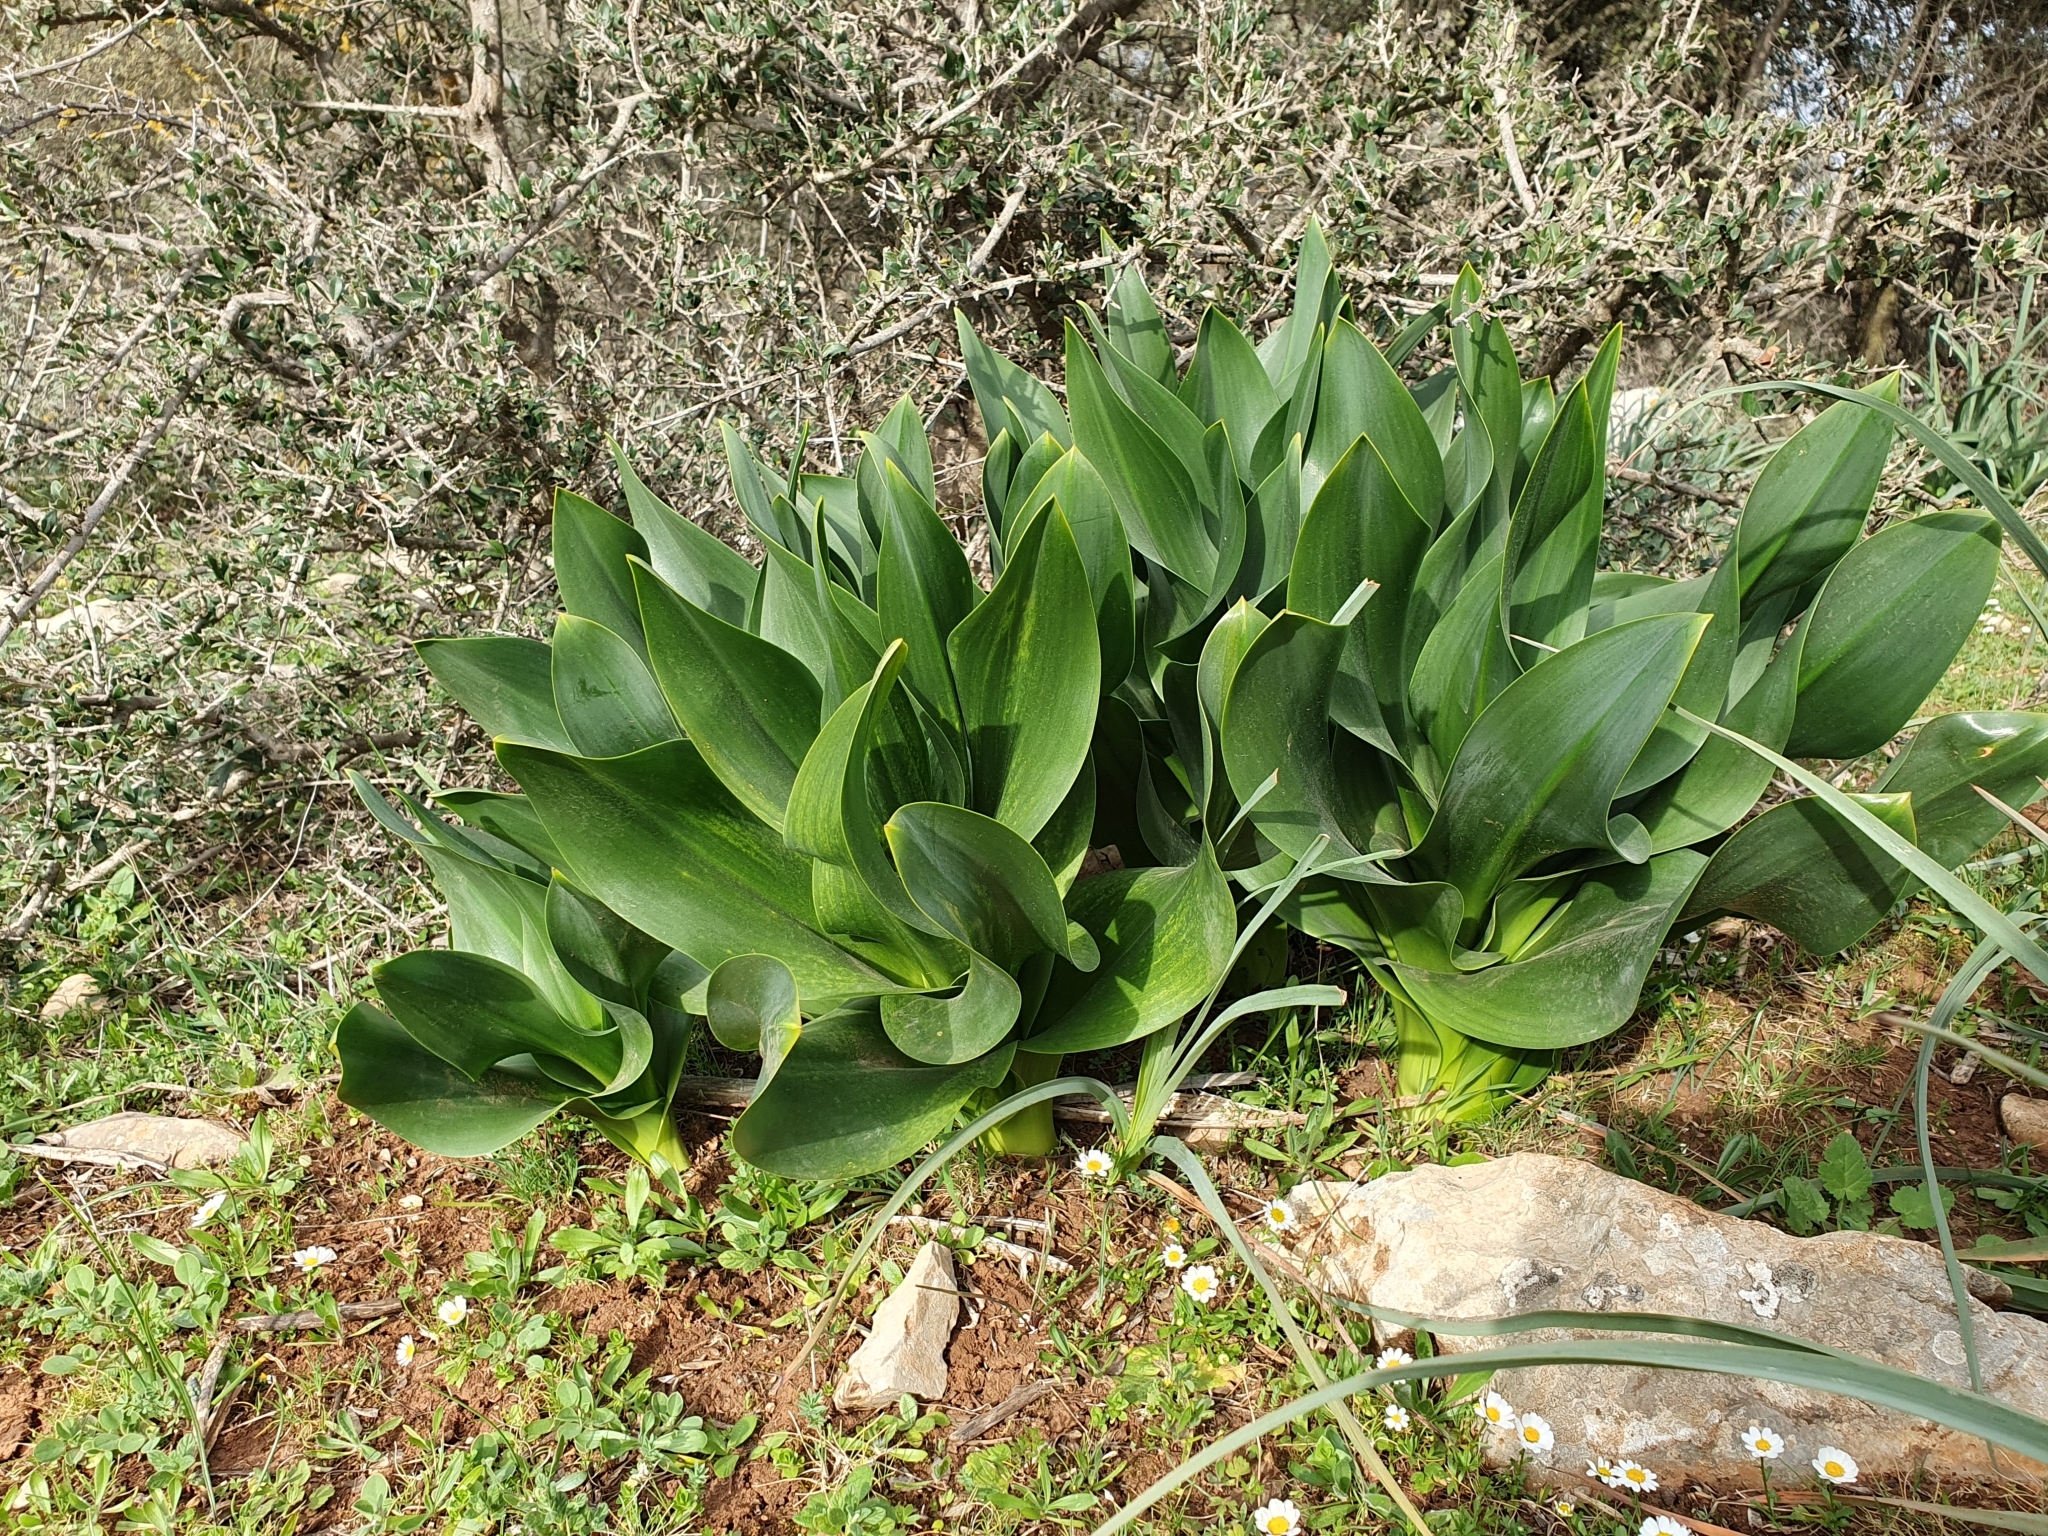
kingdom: Plantae
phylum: Tracheophyta
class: Liliopsida
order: Asparagales
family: Asparagaceae
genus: Drimia
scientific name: Drimia numidica
